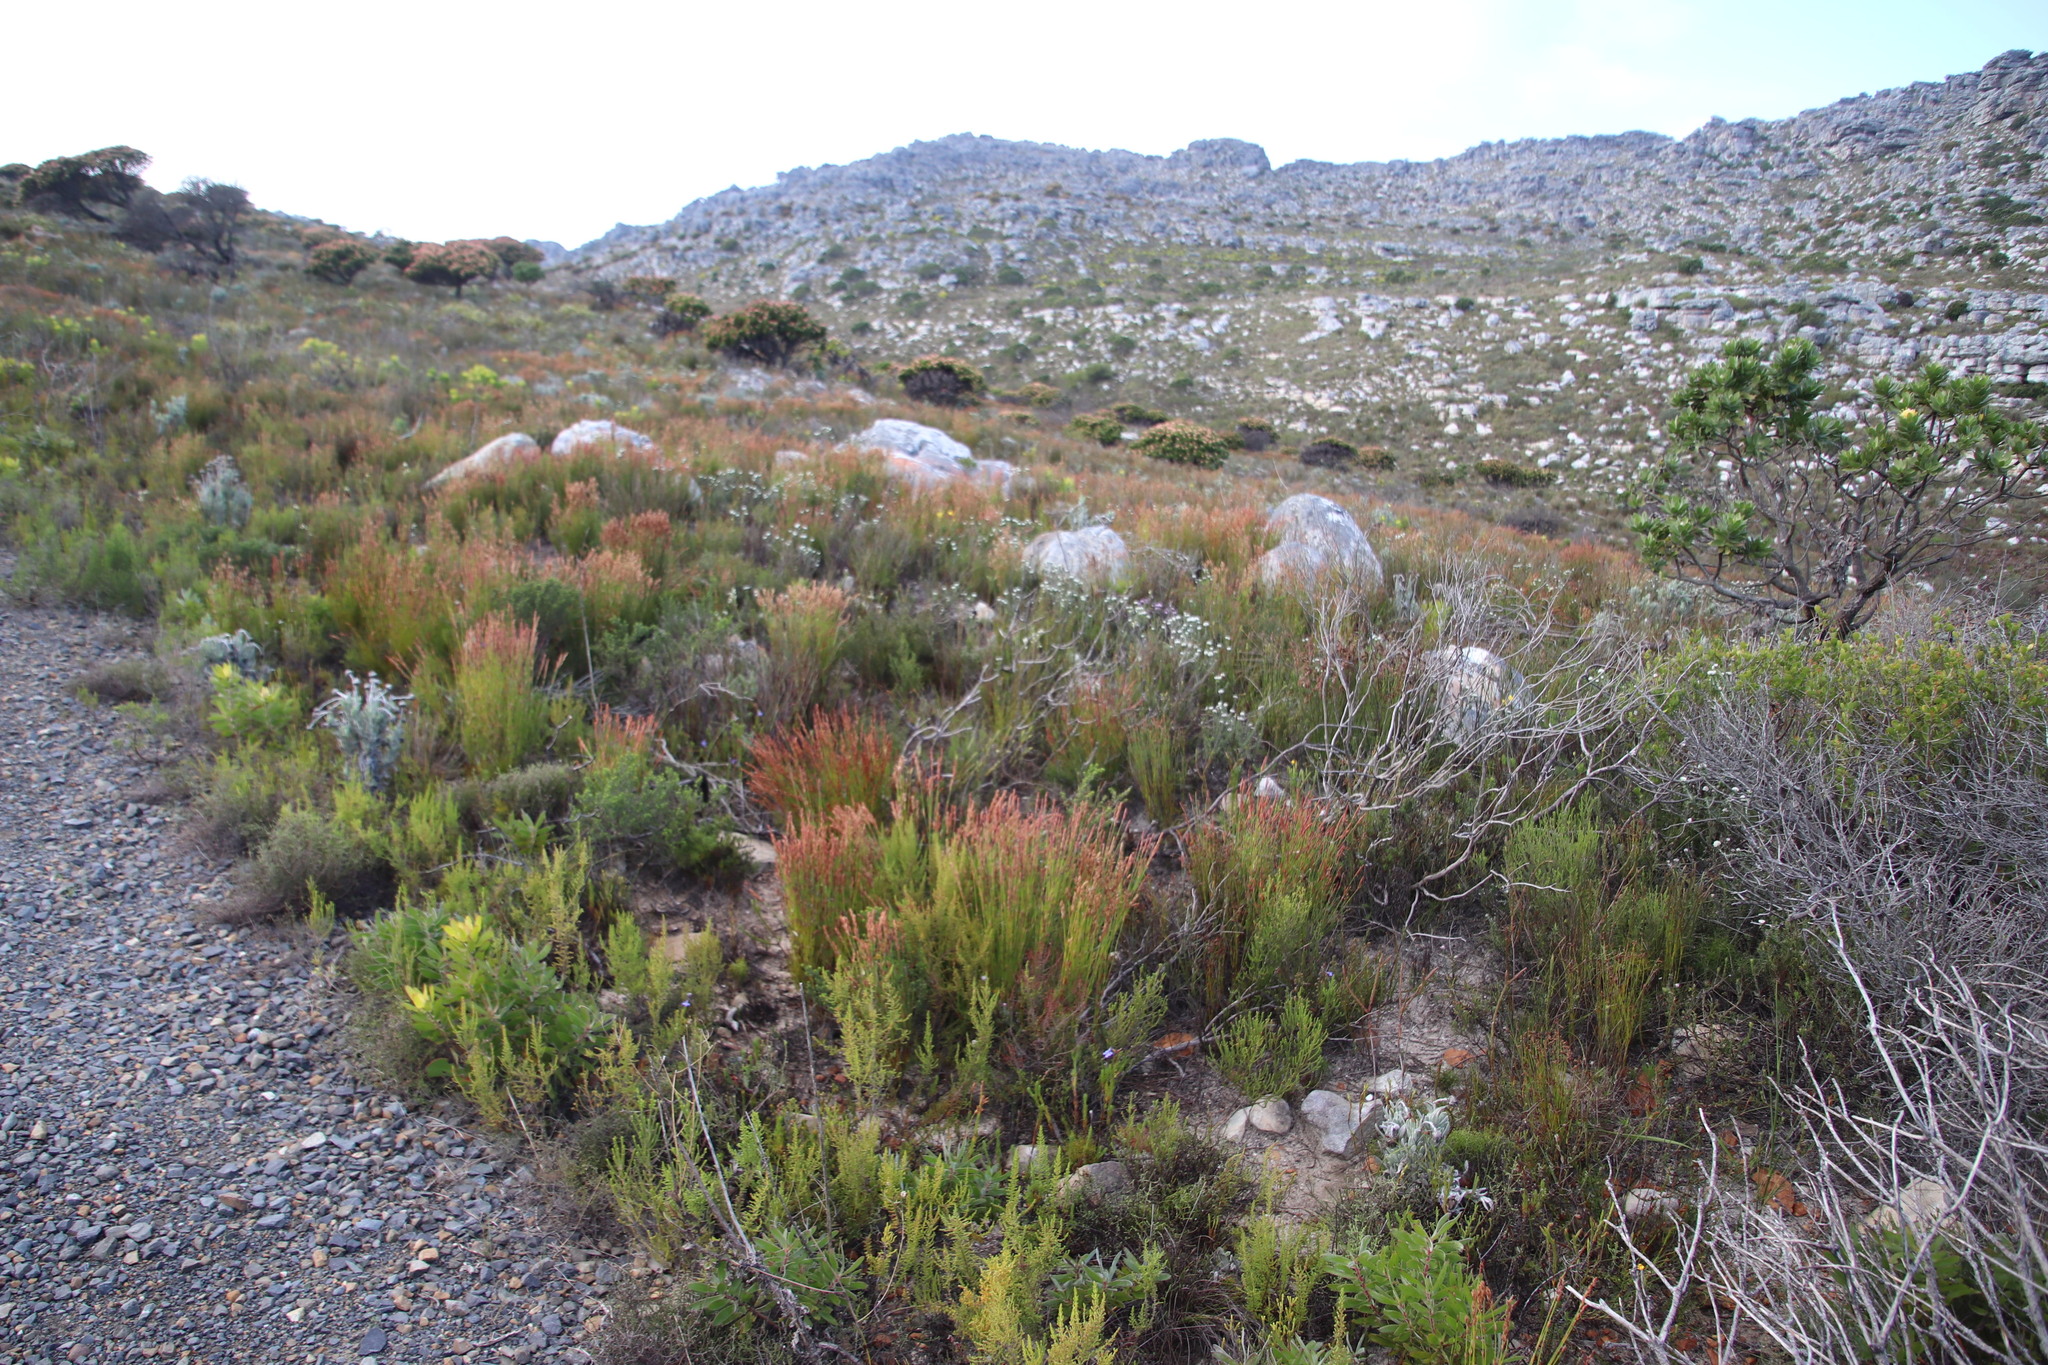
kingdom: Plantae
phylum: Tracheophyta
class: Liliopsida
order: Poales
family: Restionaceae
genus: Elegia
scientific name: Elegia stipularis
